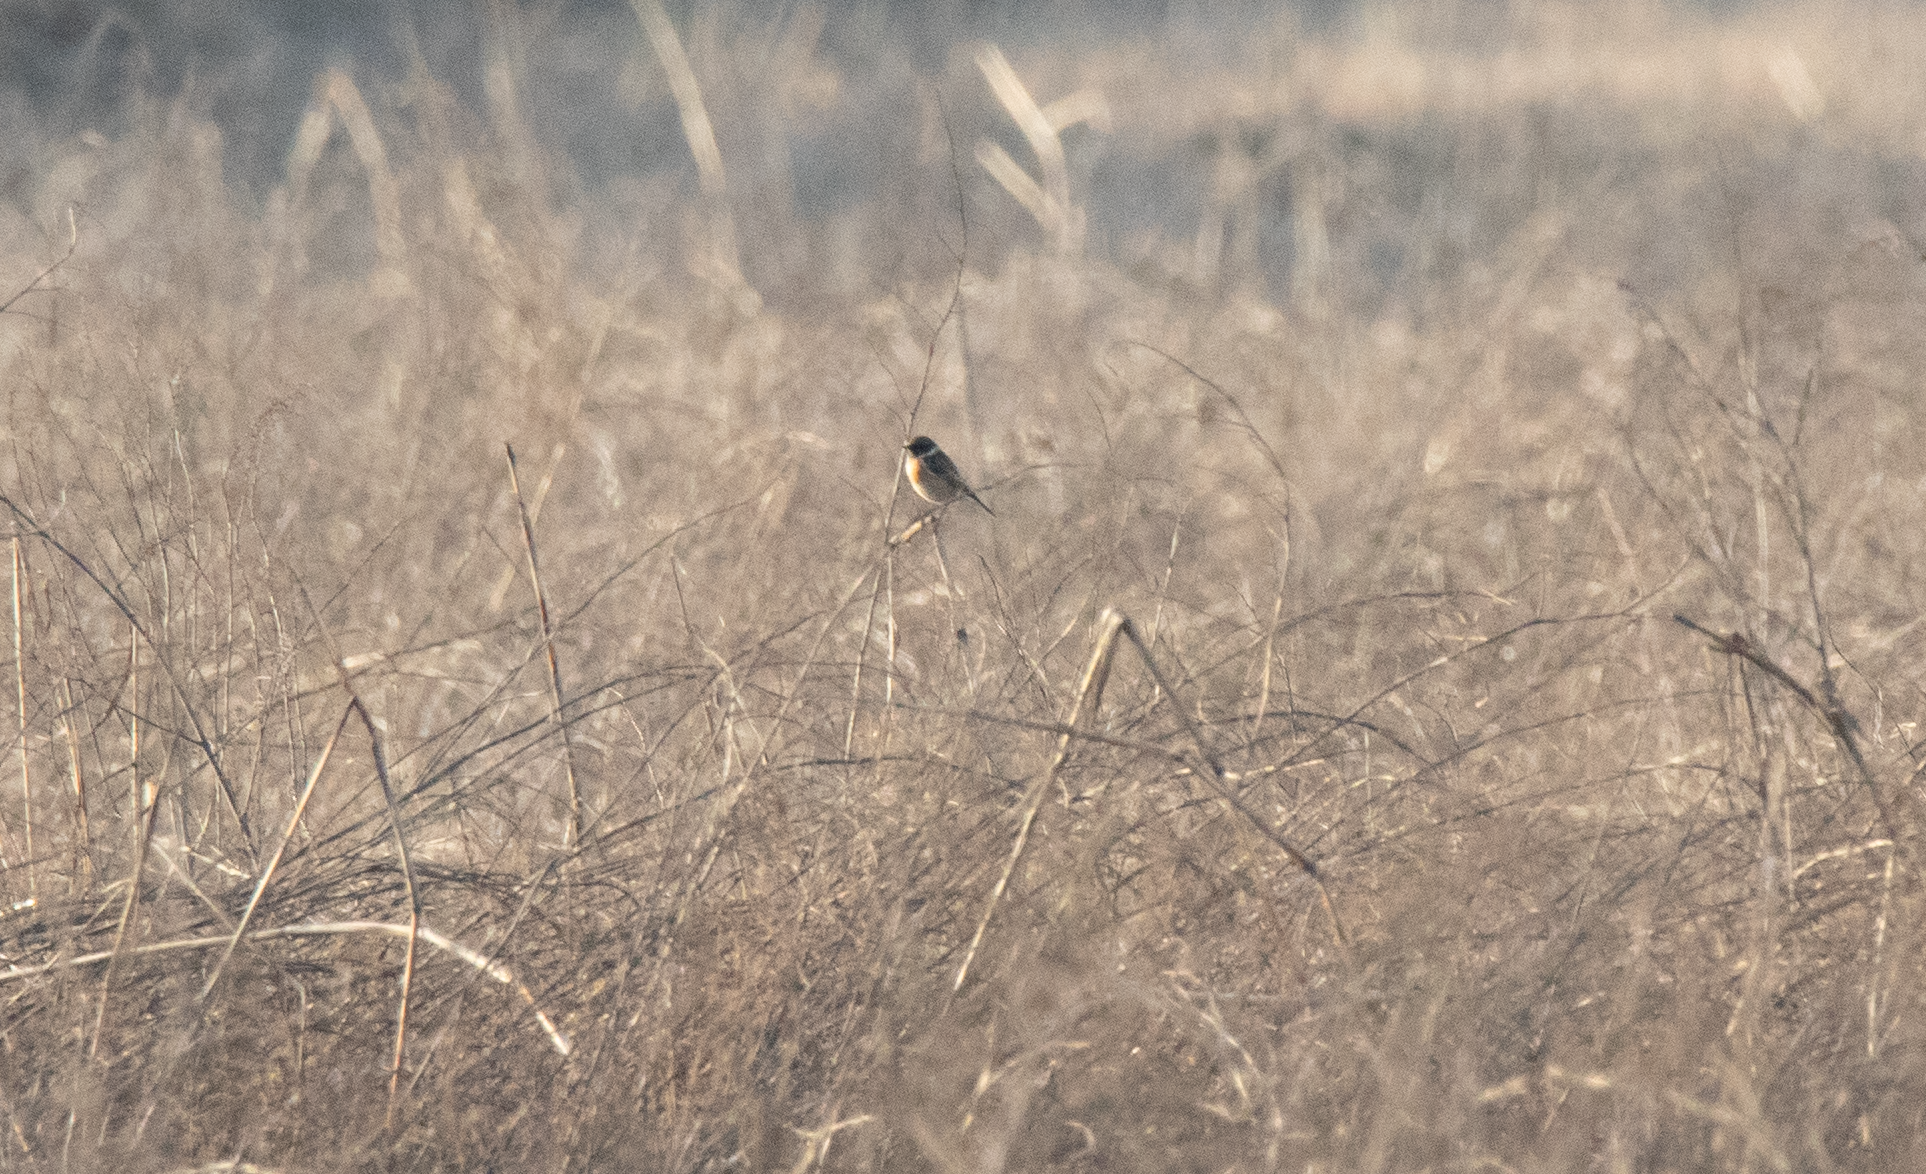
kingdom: Animalia
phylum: Chordata
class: Aves
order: Passeriformes
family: Muscicapidae
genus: Saxicola
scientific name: Saxicola rubicola
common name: European stonechat
